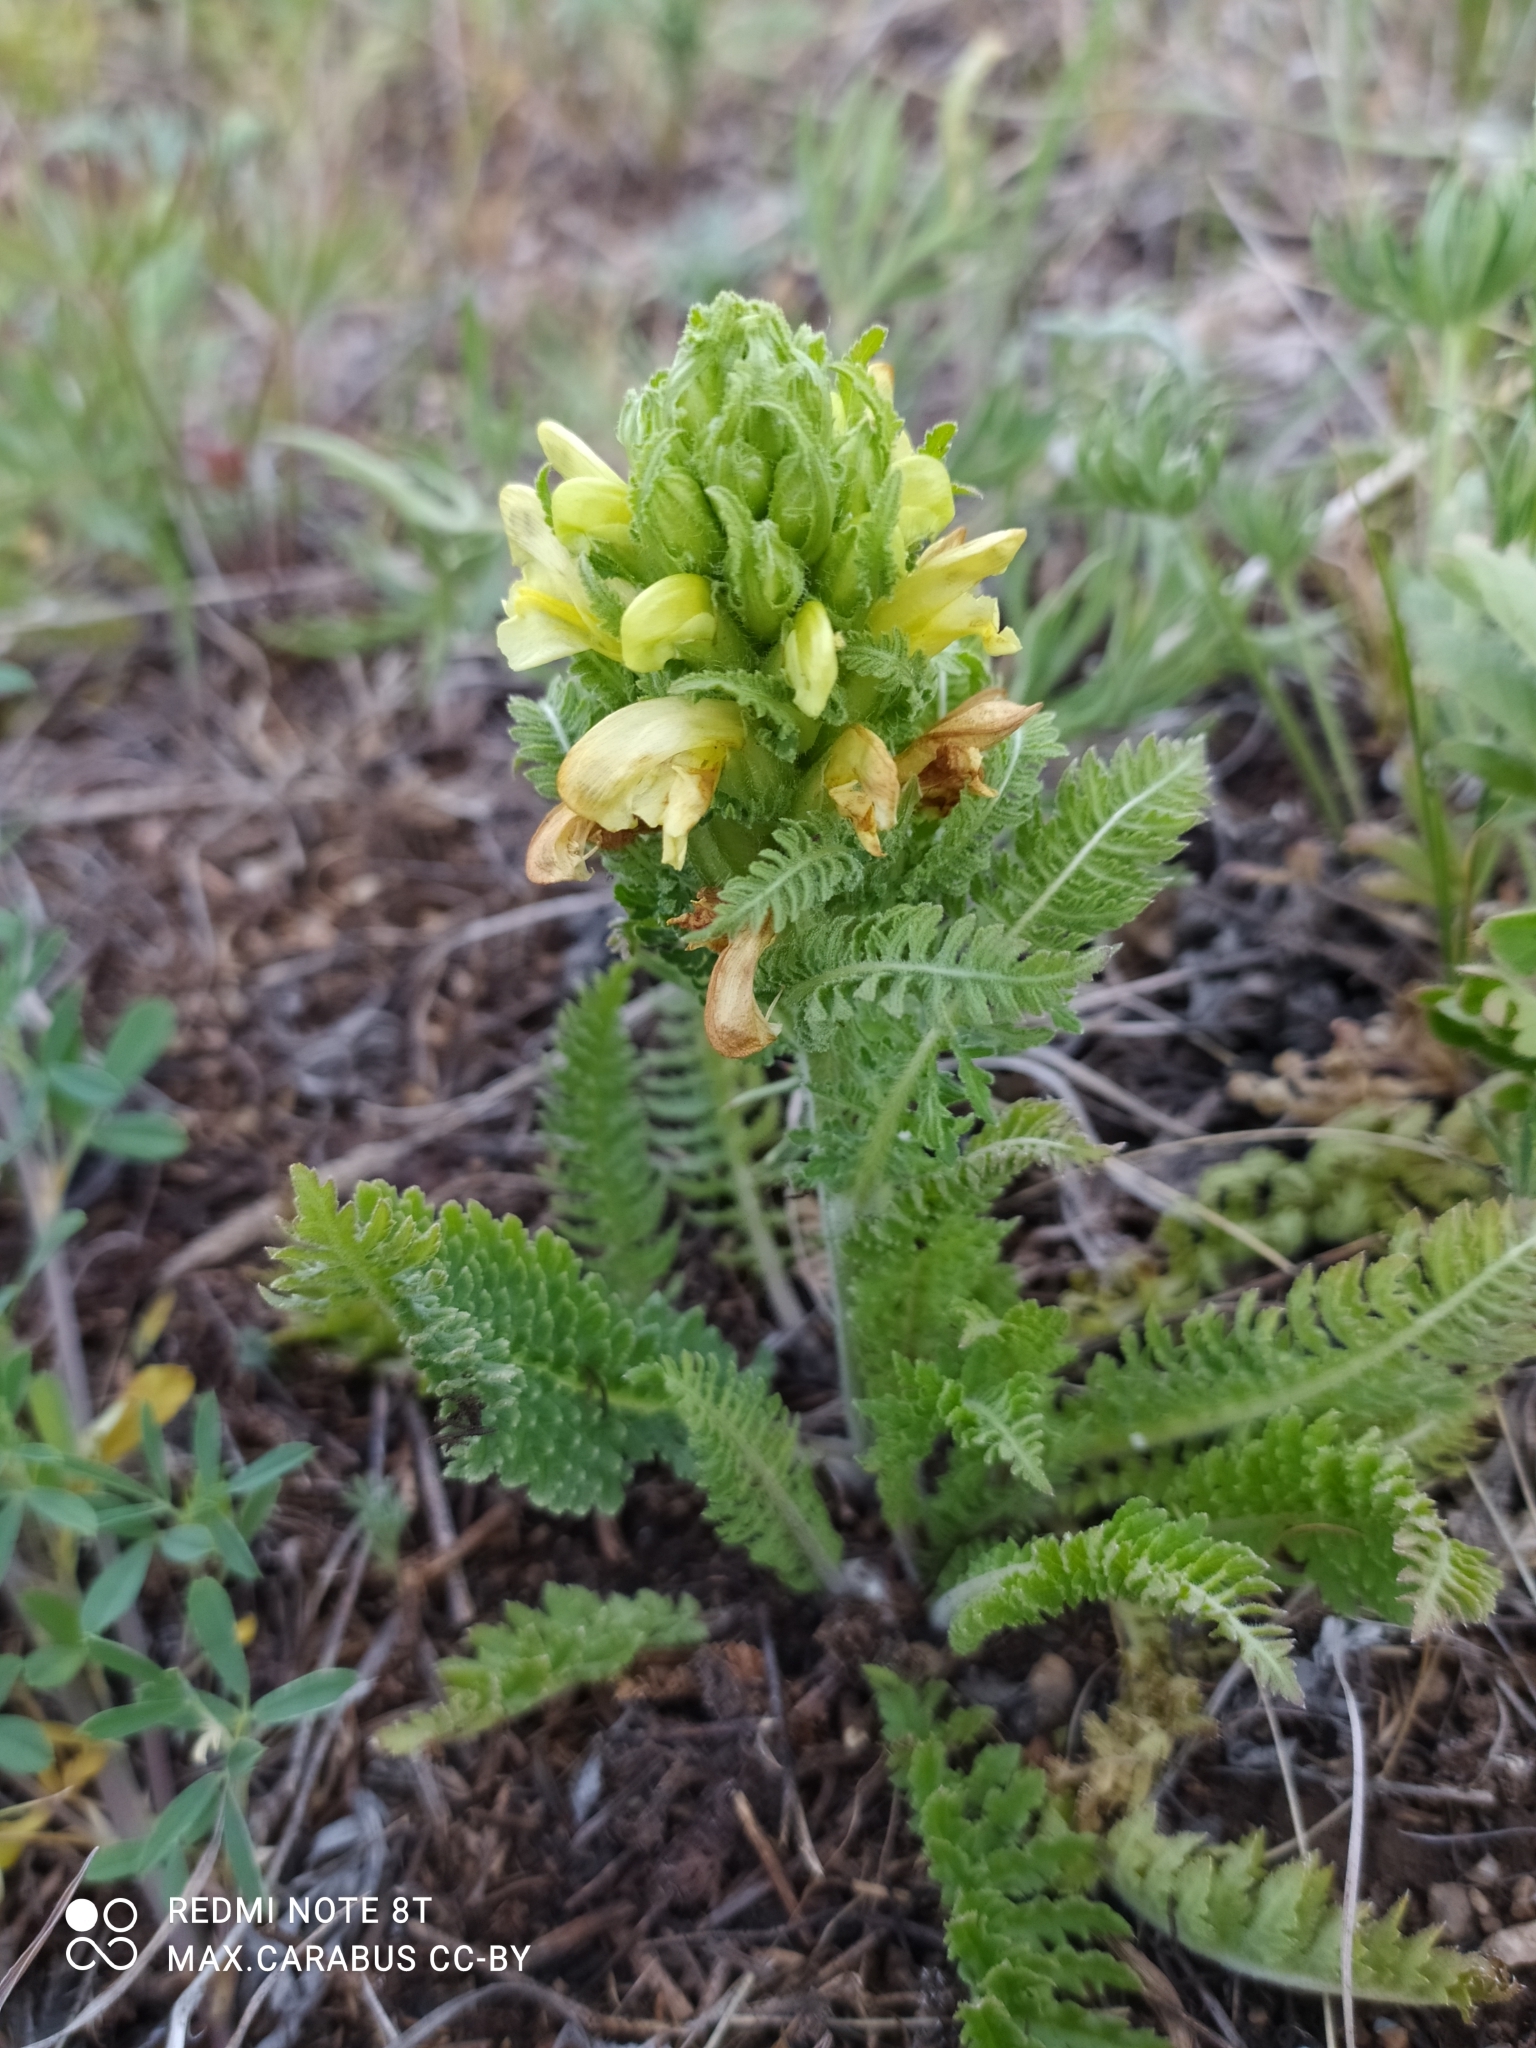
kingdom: Plantae
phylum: Tracheophyta
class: Magnoliopsida
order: Lamiales
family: Orobanchaceae
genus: Pedicularis
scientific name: Pedicularis kaufmannii
